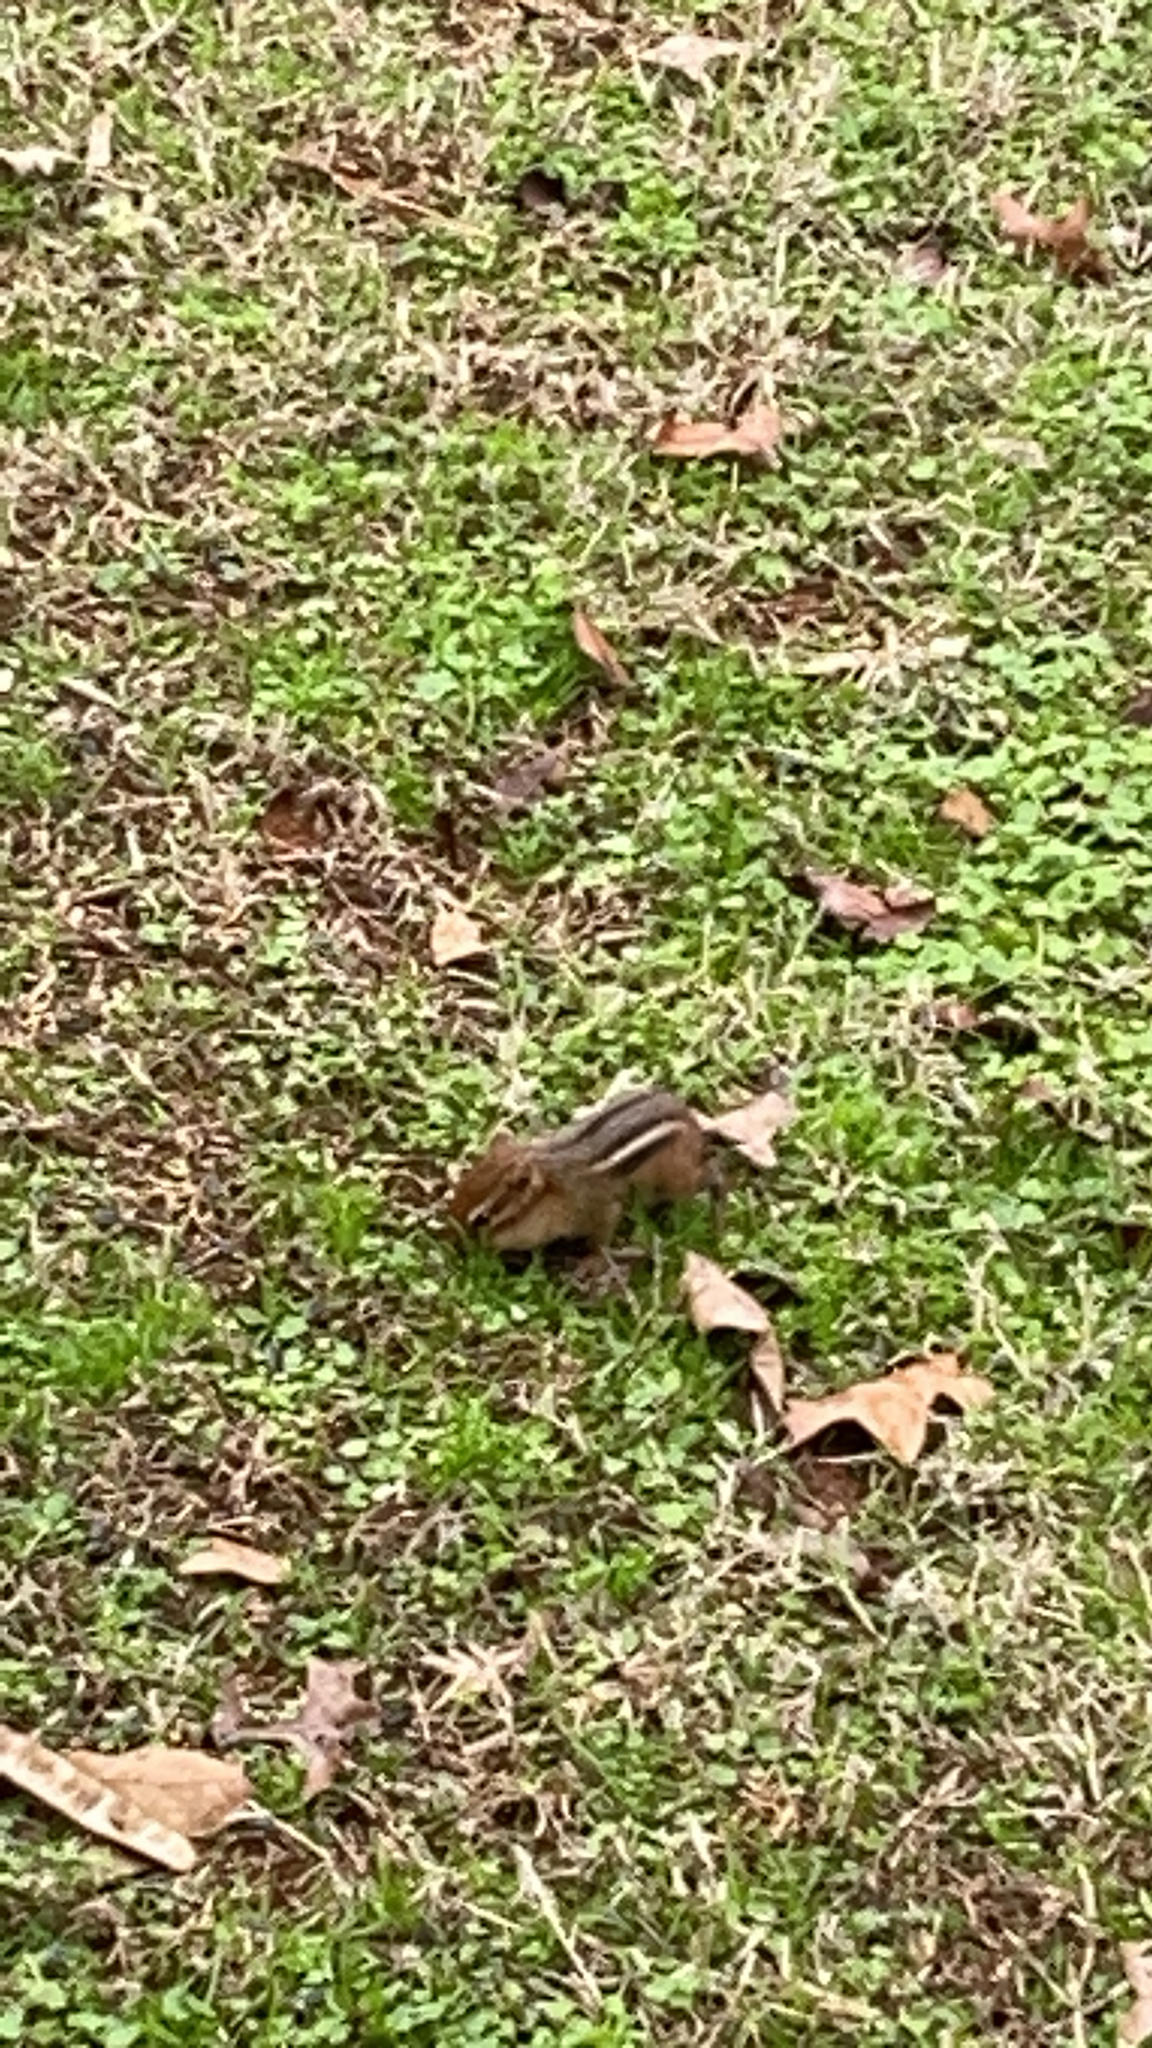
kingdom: Animalia
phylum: Chordata
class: Mammalia
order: Rodentia
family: Sciuridae
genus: Tamias
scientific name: Tamias striatus
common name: Eastern chipmunk
